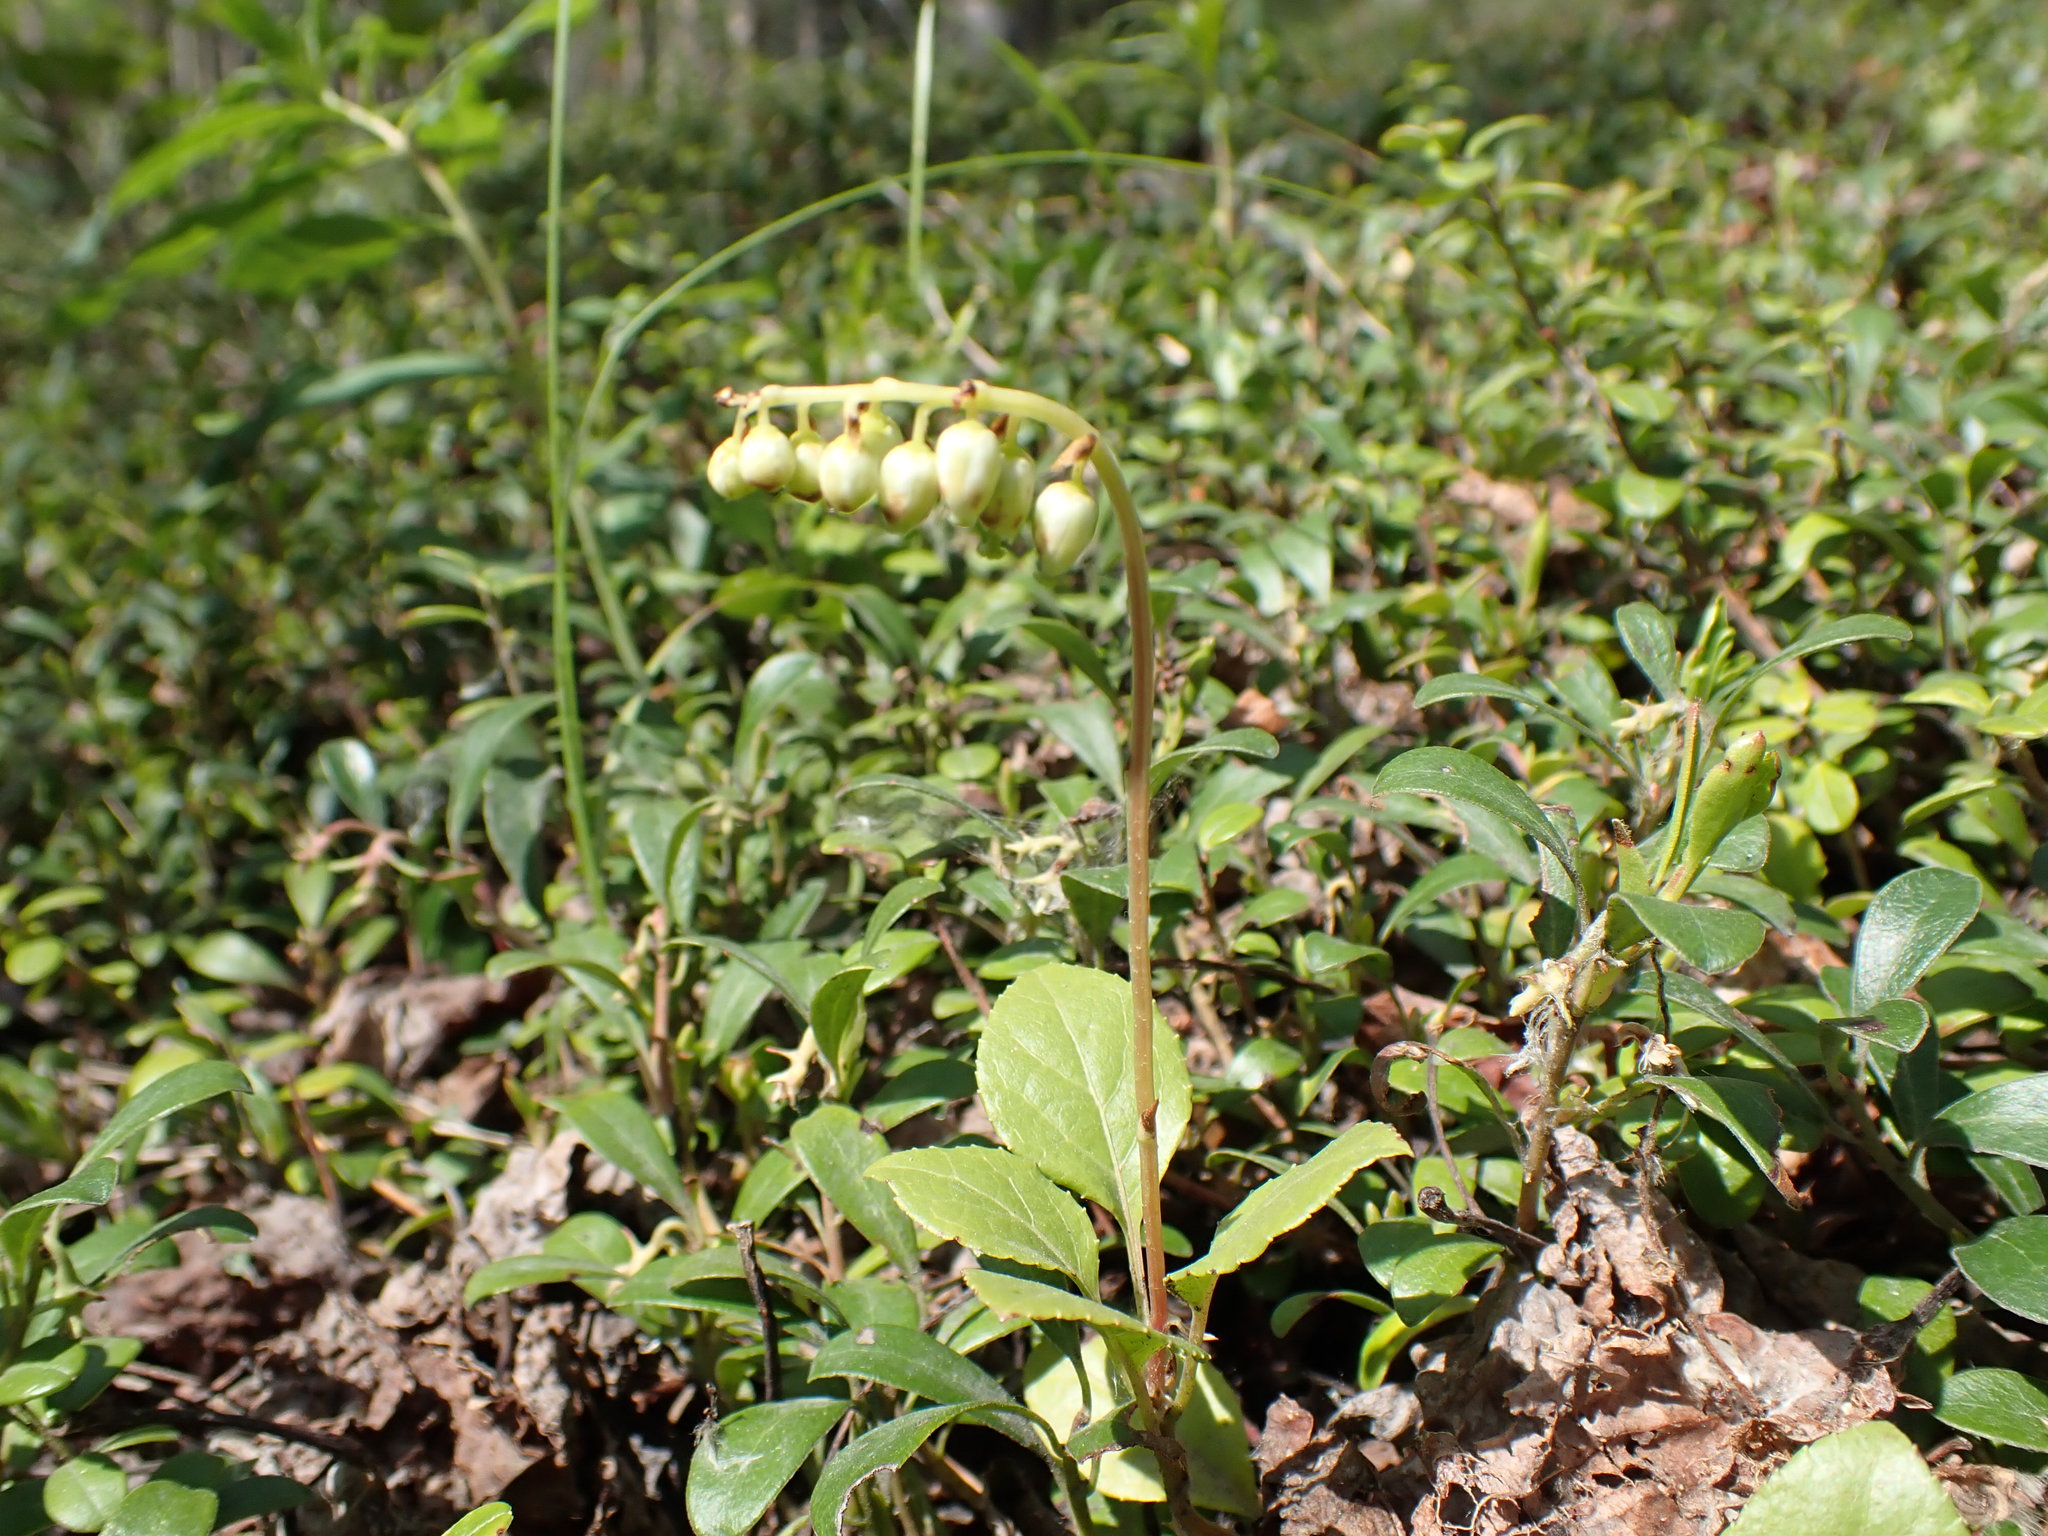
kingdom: Plantae
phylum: Tracheophyta
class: Magnoliopsida
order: Ericales
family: Ericaceae
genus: Orthilia
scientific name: Orthilia secunda
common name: One-sided orthilia
